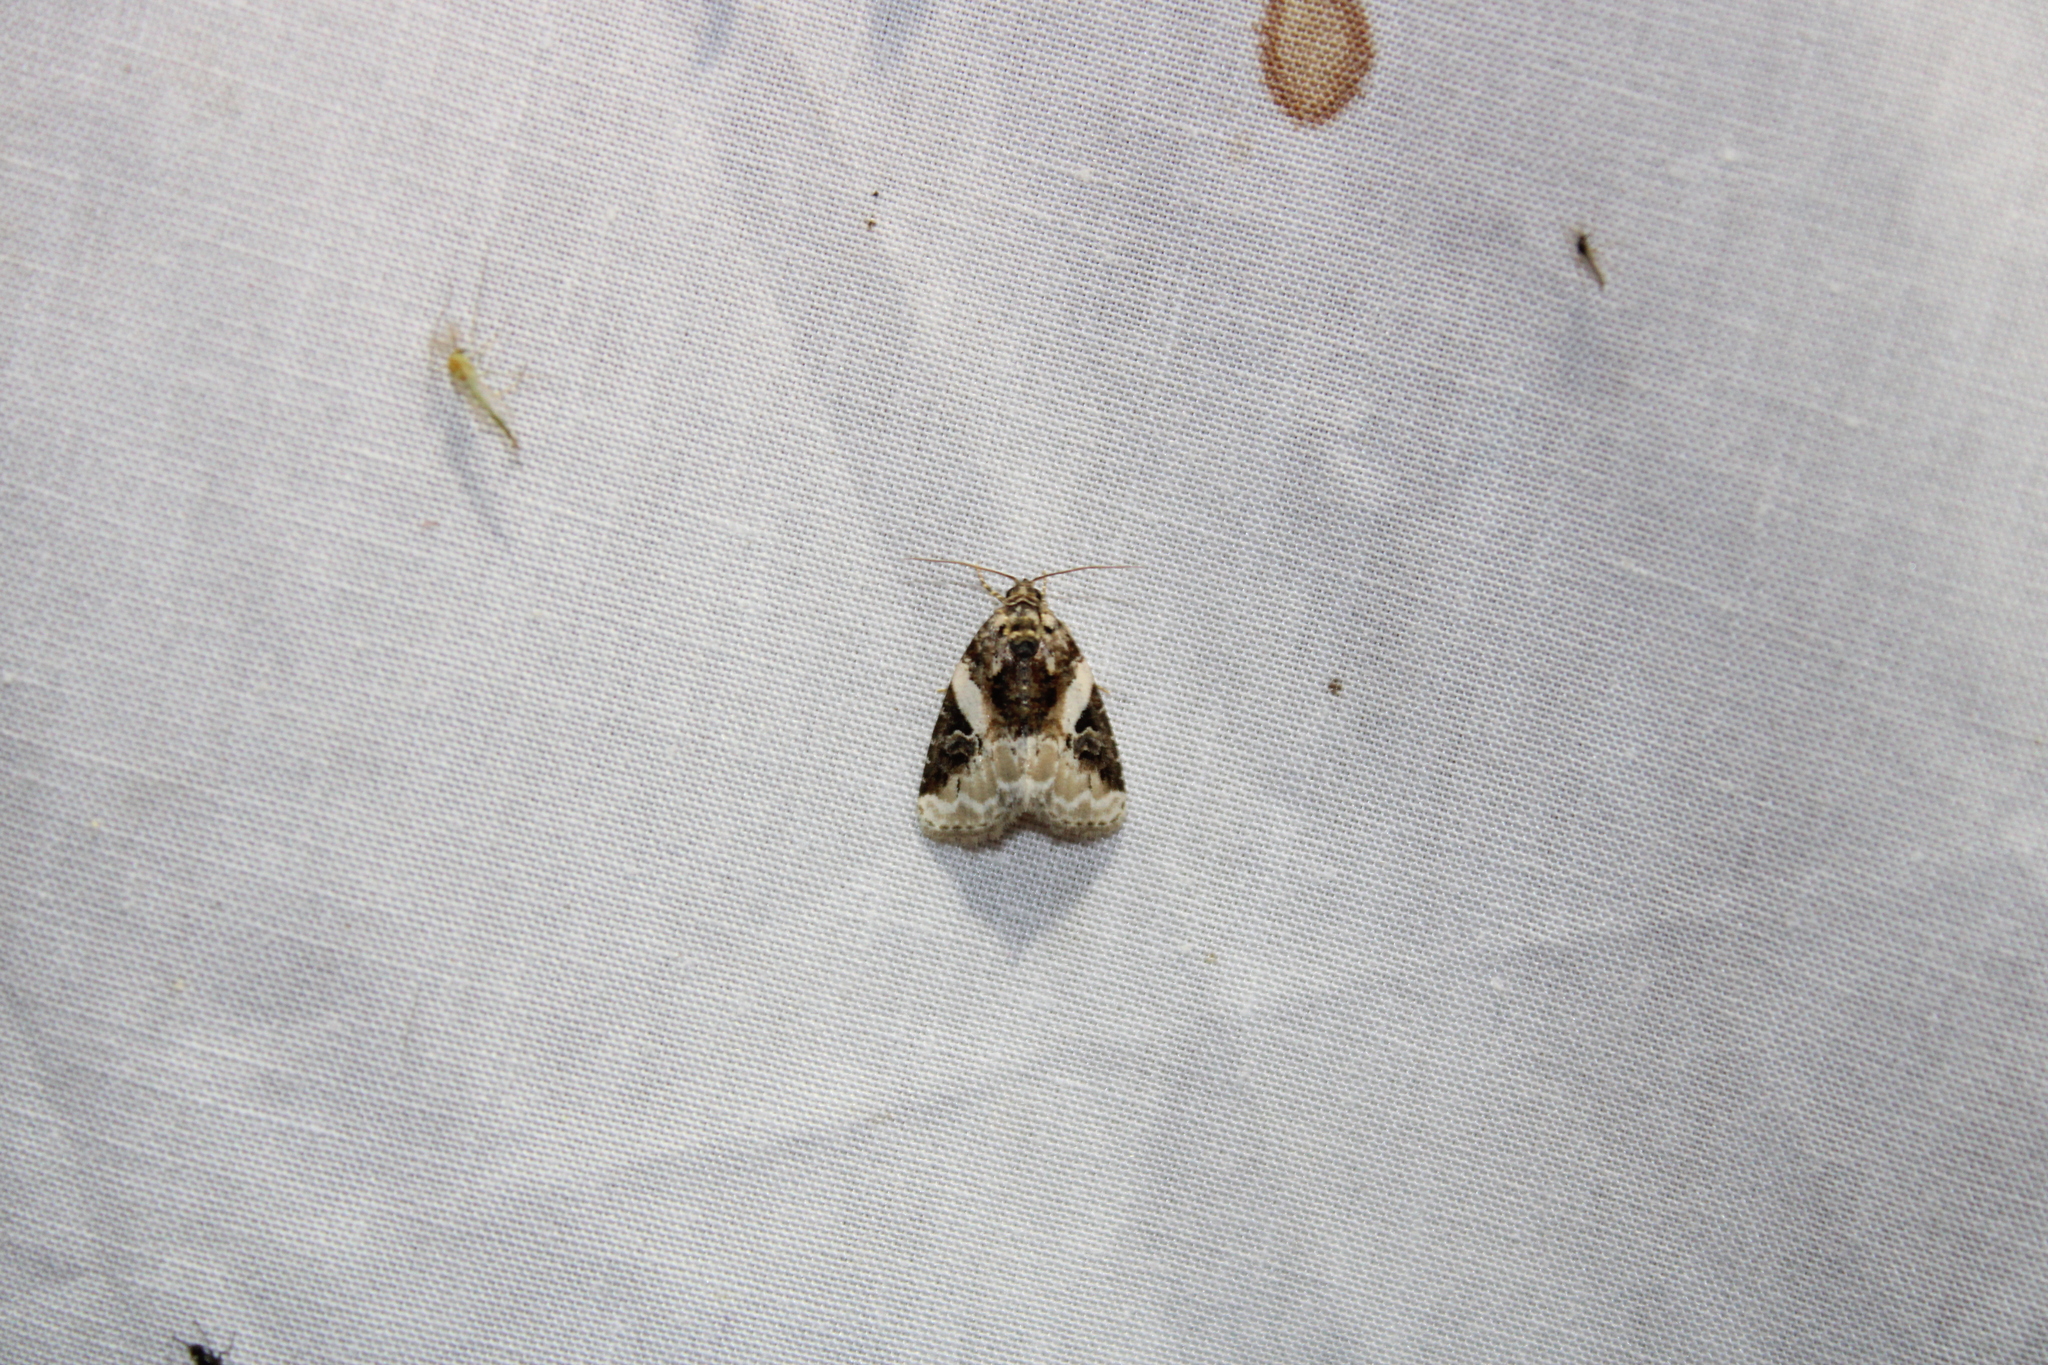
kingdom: Animalia
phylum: Arthropoda
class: Insecta
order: Lepidoptera
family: Noctuidae
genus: Pseudeustrotia
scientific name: Pseudeustrotia carneola
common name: Pink-barred lithacodia moth
